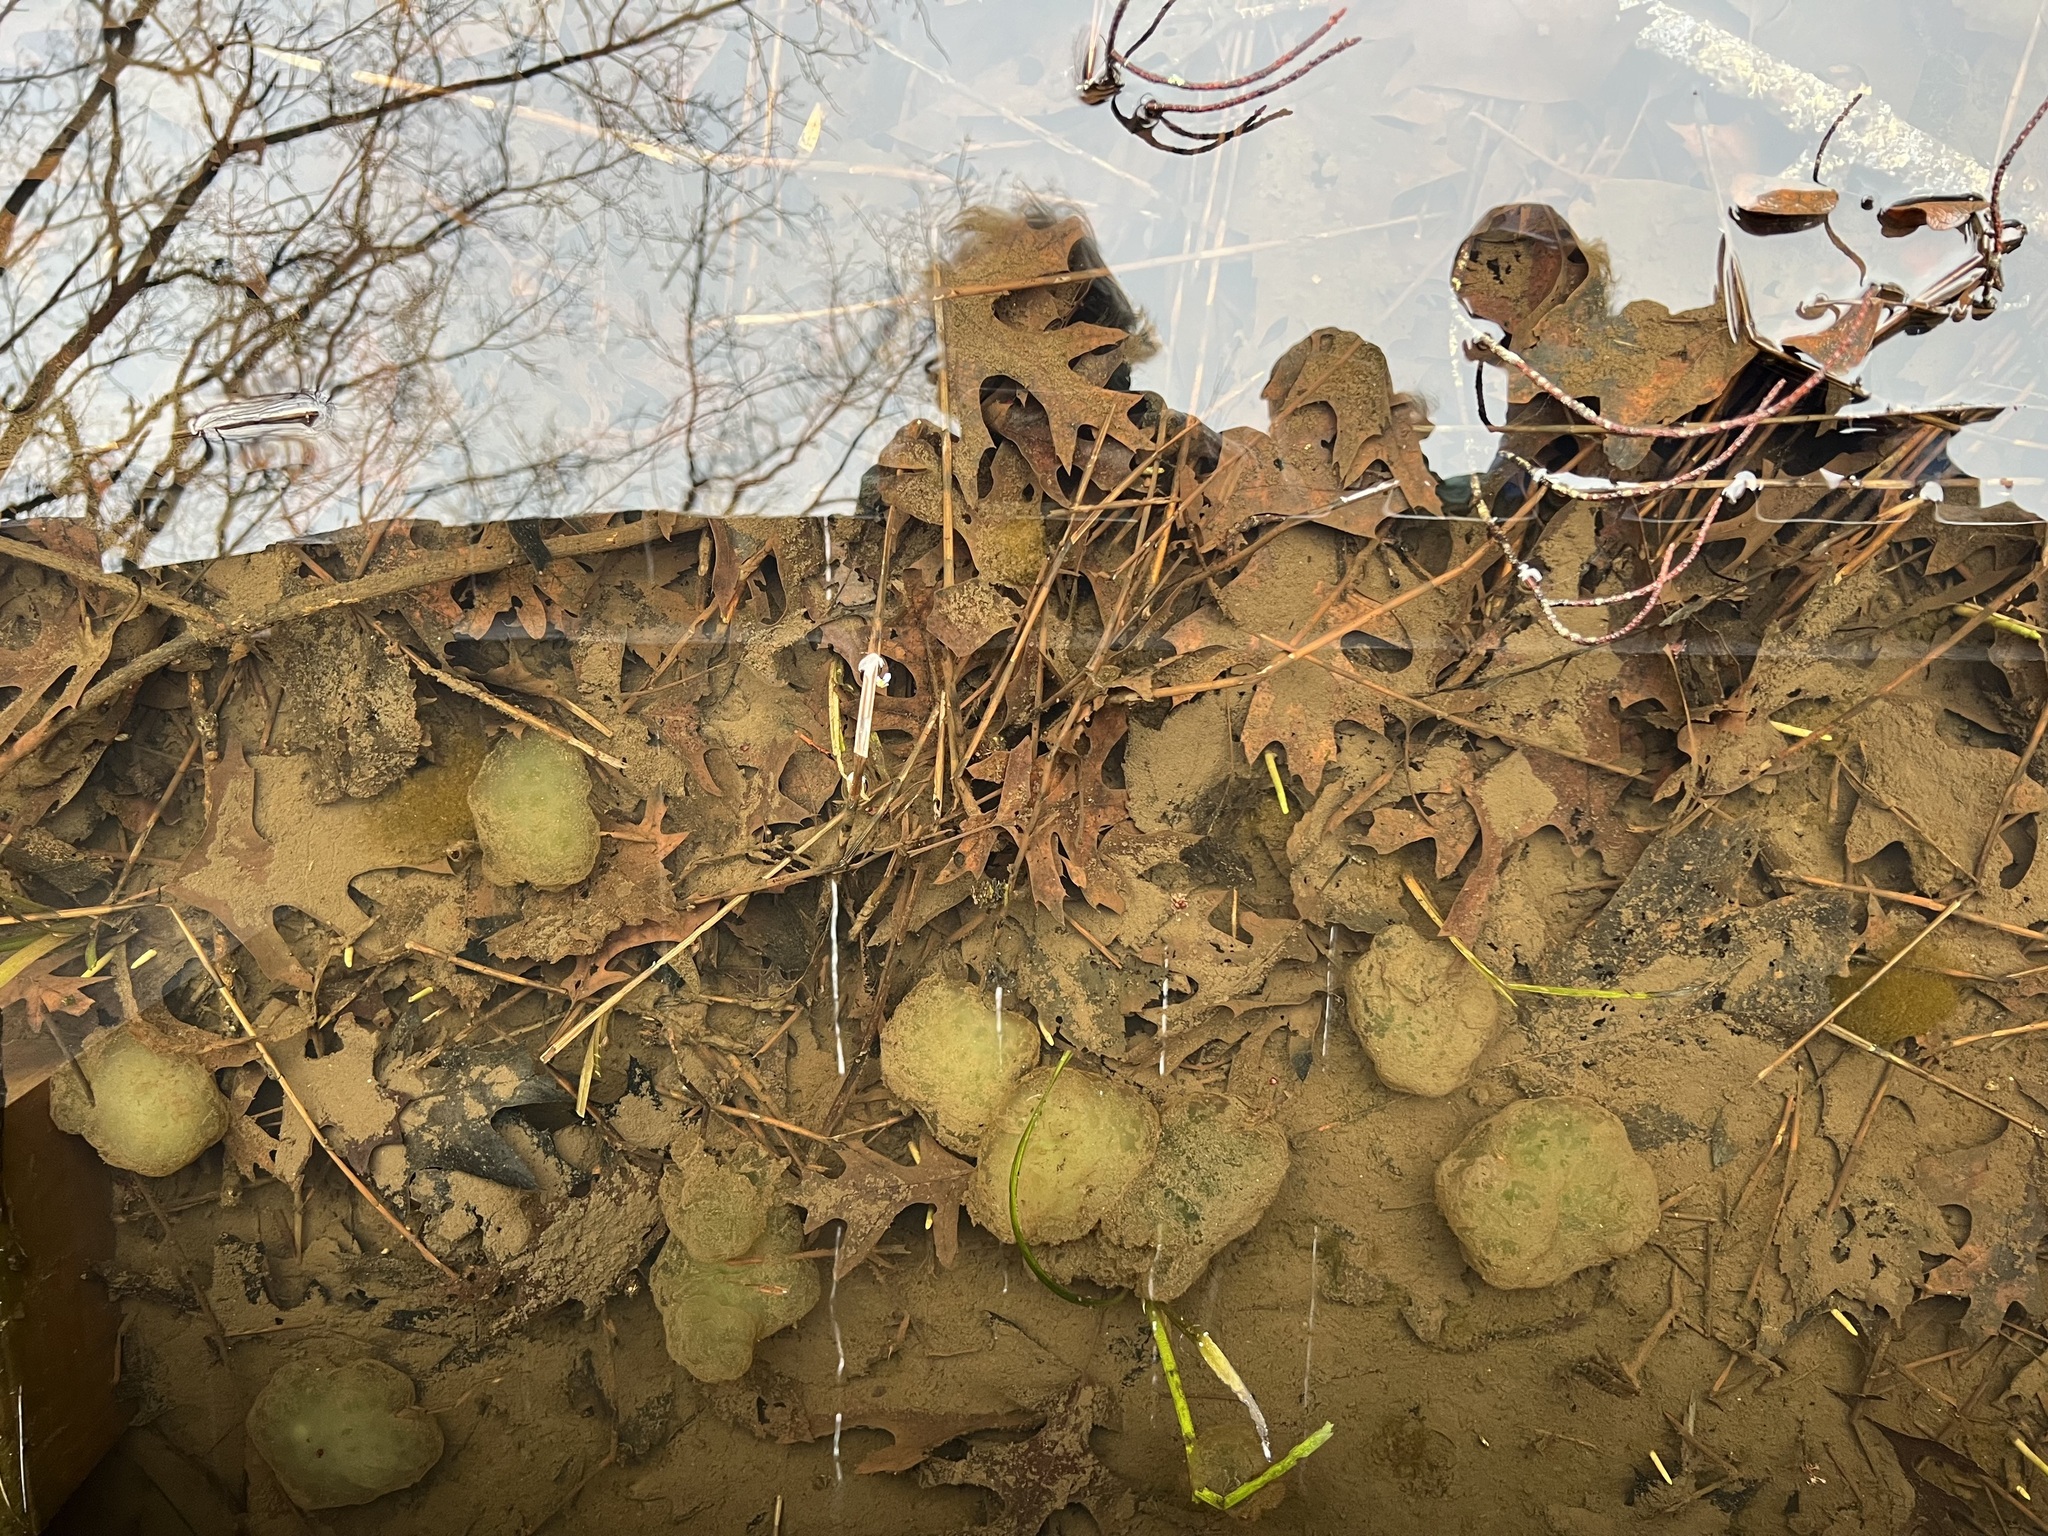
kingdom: Animalia
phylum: Chordata
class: Amphibia
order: Caudata
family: Ambystomatidae
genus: Ambystoma
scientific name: Ambystoma maculatum
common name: Spotted salamander
